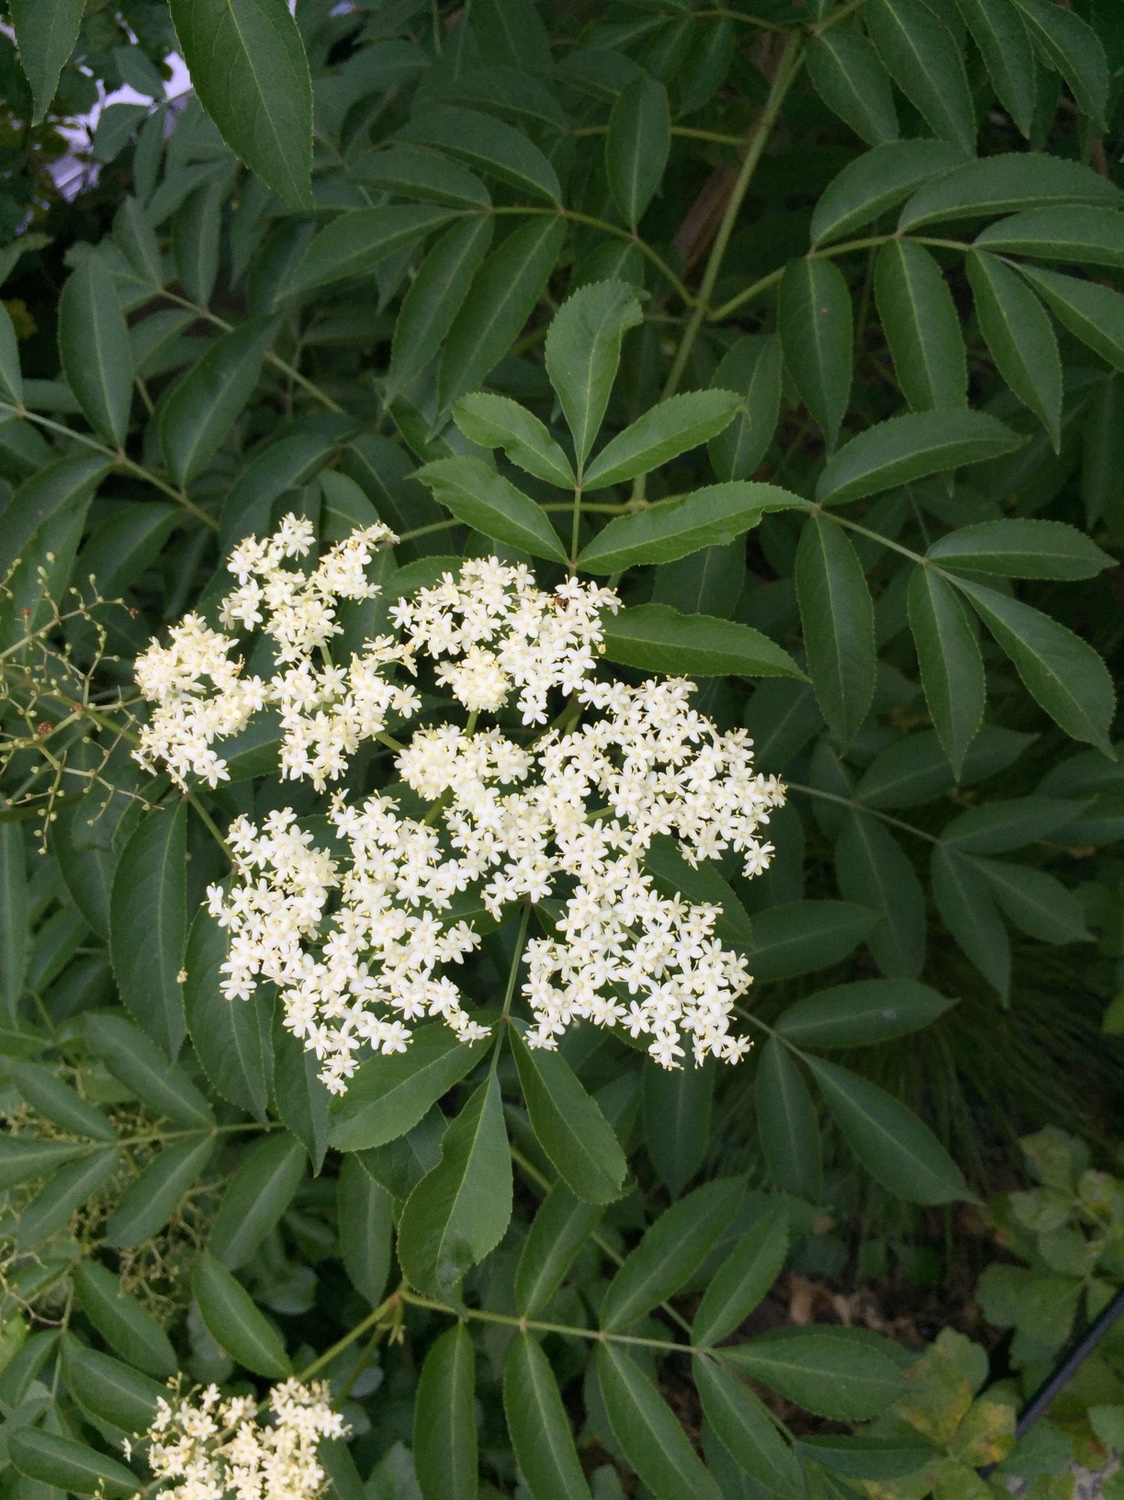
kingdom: Plantae
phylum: Tracheophyta
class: Magnoliopsida
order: Dipsacales
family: Viburnaceae
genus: Sambucus
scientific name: Sambucus canadensis
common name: American elder
